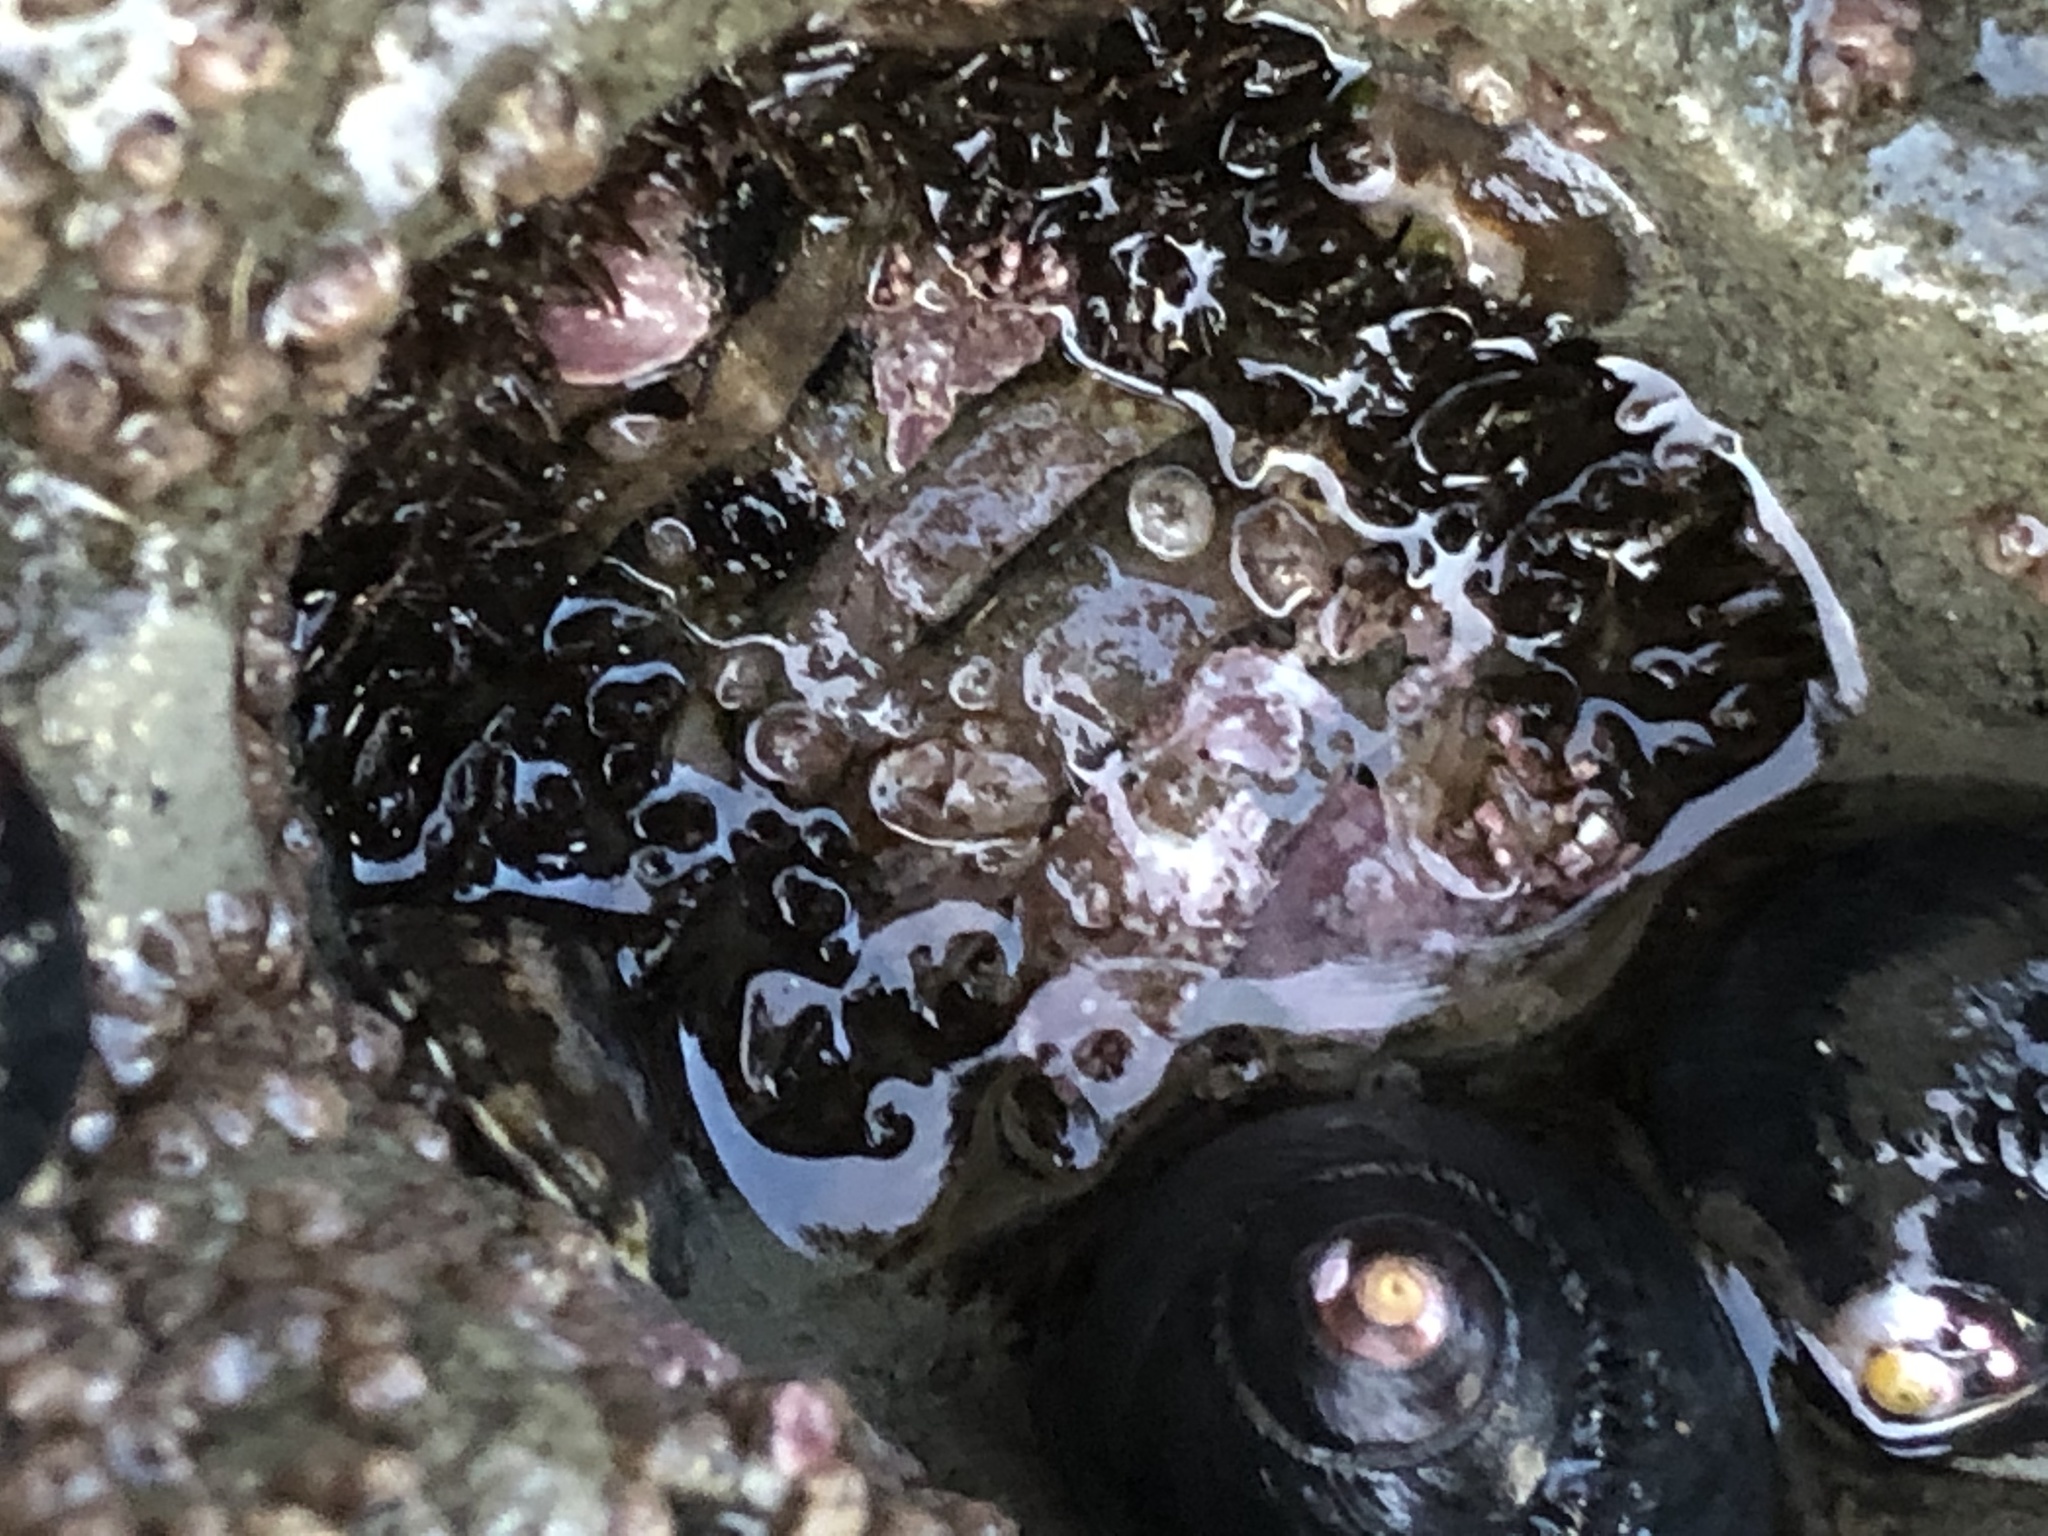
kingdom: Animalia
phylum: Mollusca
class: Polyplacophora
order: Chitonida
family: Mopaliidae
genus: Mopalia
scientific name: Mopalia muscosa
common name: Mossy chiton
